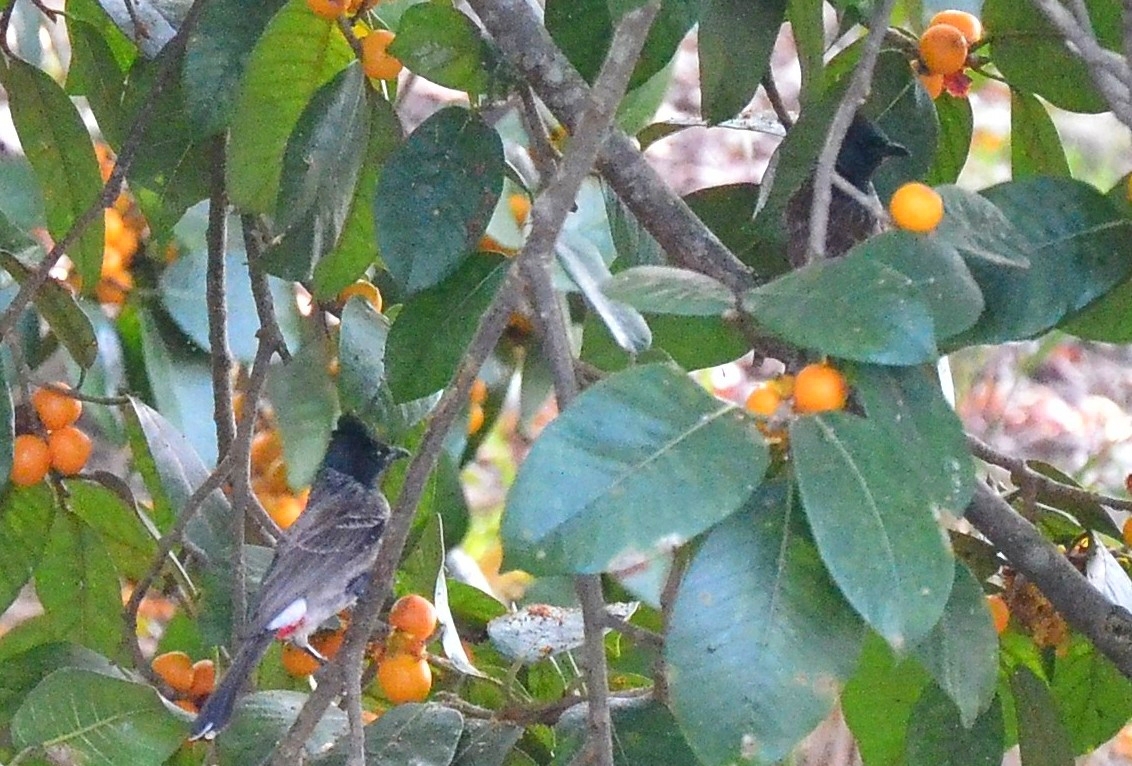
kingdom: Animalia
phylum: Chordata
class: Aves
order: Passeriformes
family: Pycnonotidae
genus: Pycnonotus
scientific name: Pycnonotus cafer
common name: Red-vented bulbul
